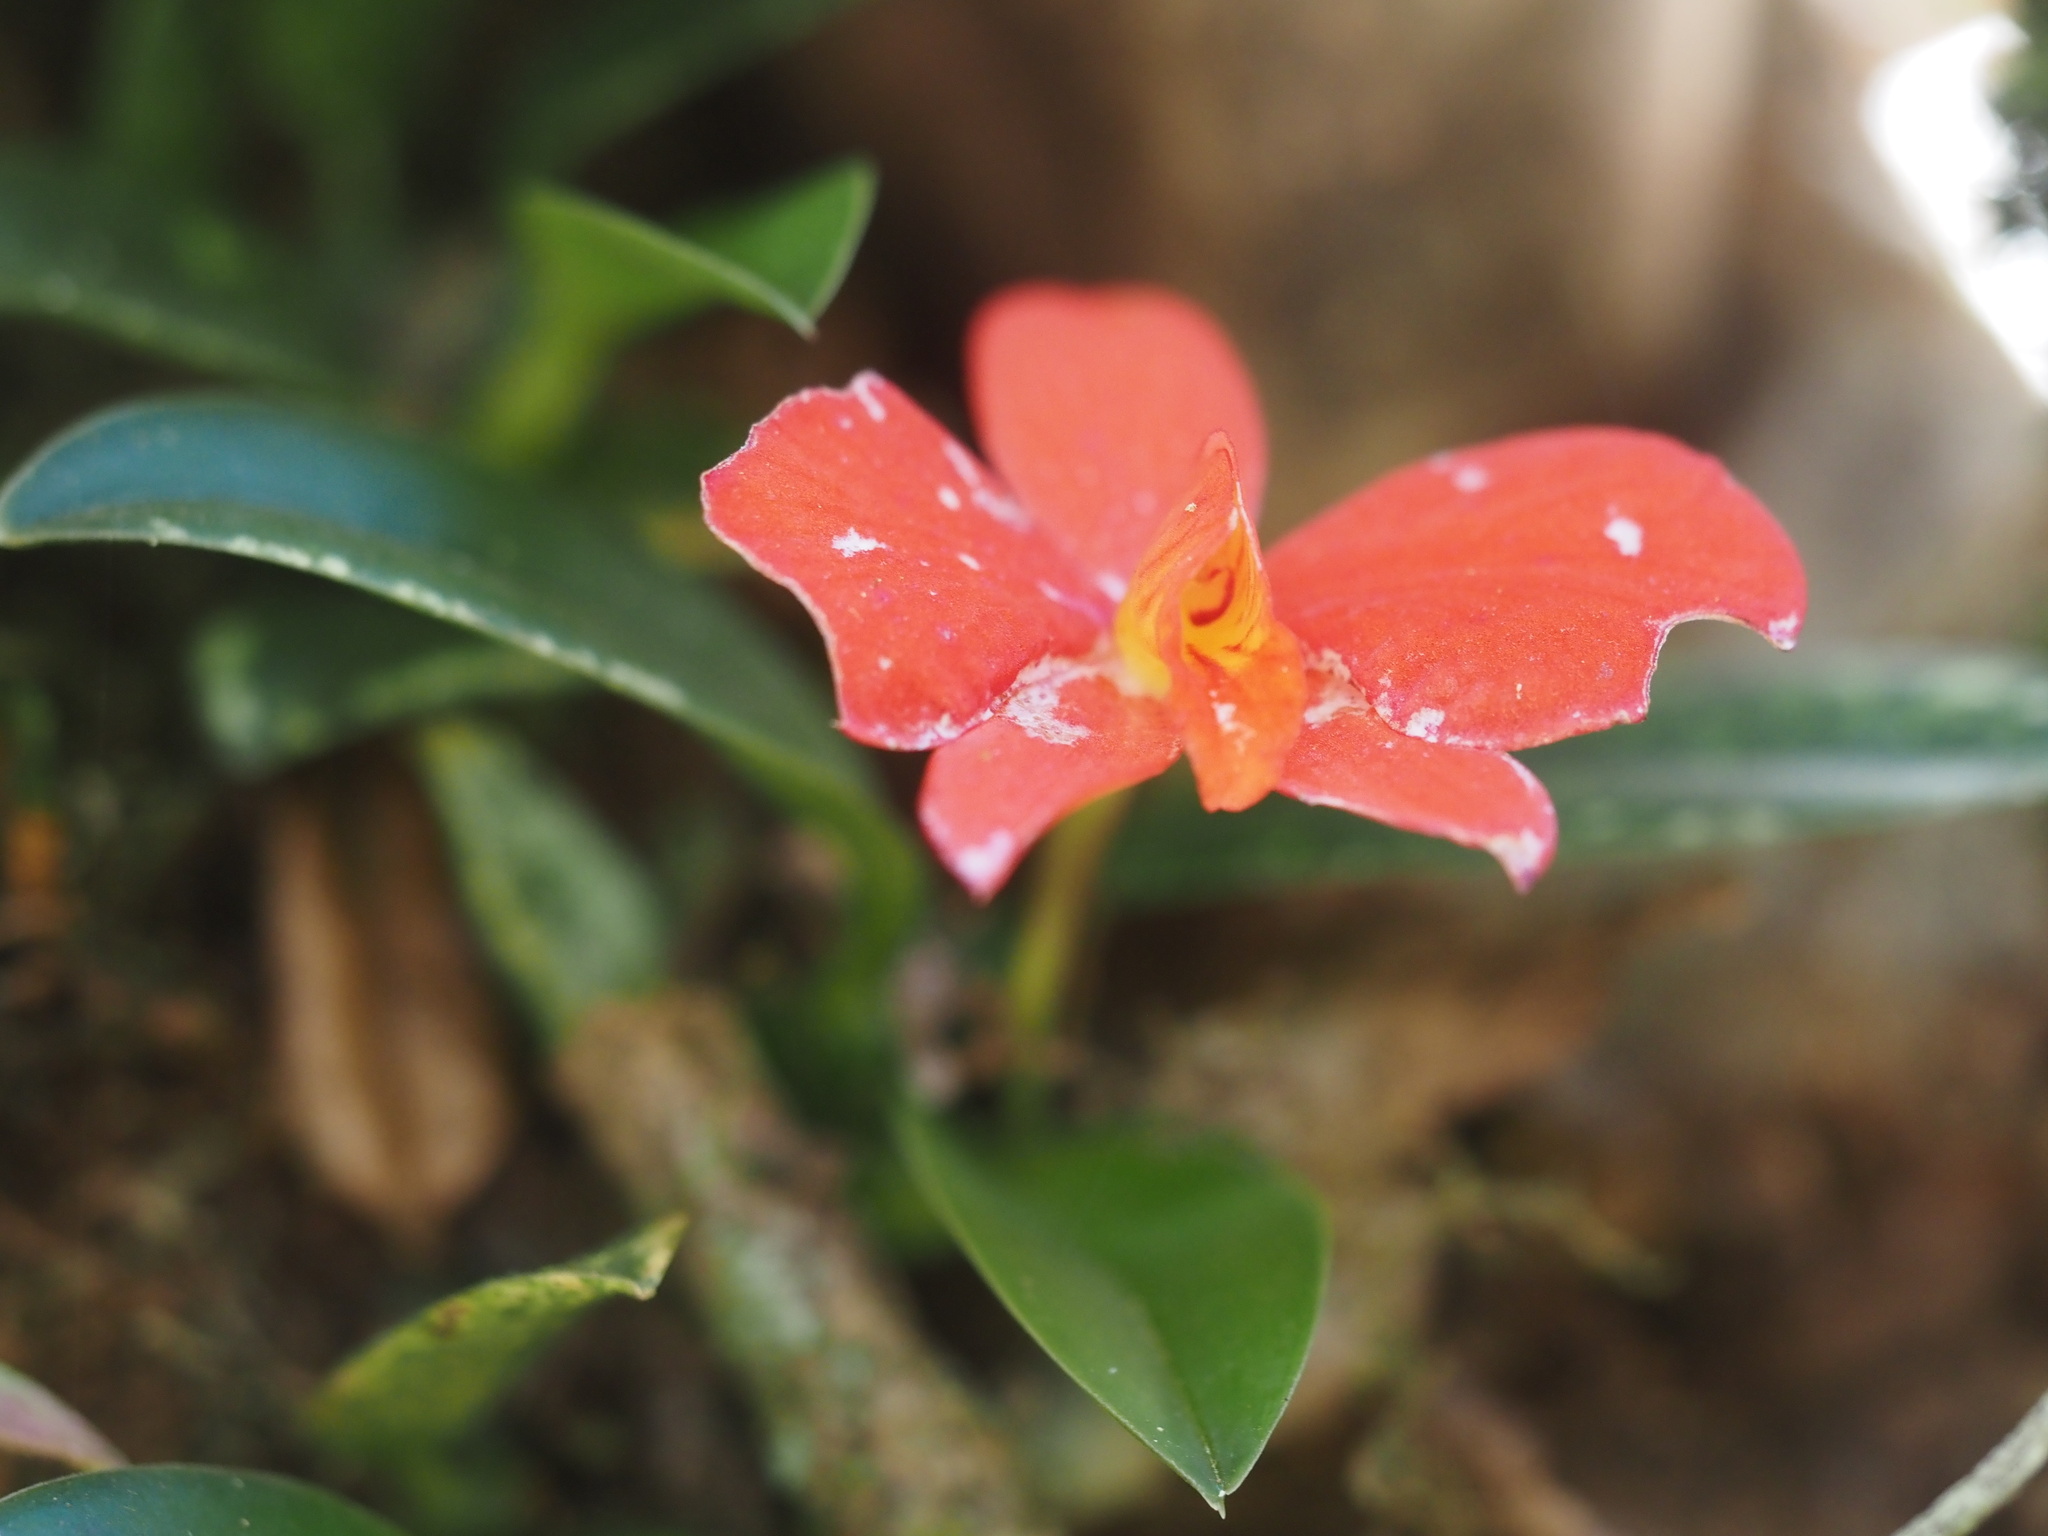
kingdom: Plantae
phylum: Tracheophyta
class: Liliopsida
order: Asparagales
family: Orchidaceae
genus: Cattleya
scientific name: Cattleya coccinea
